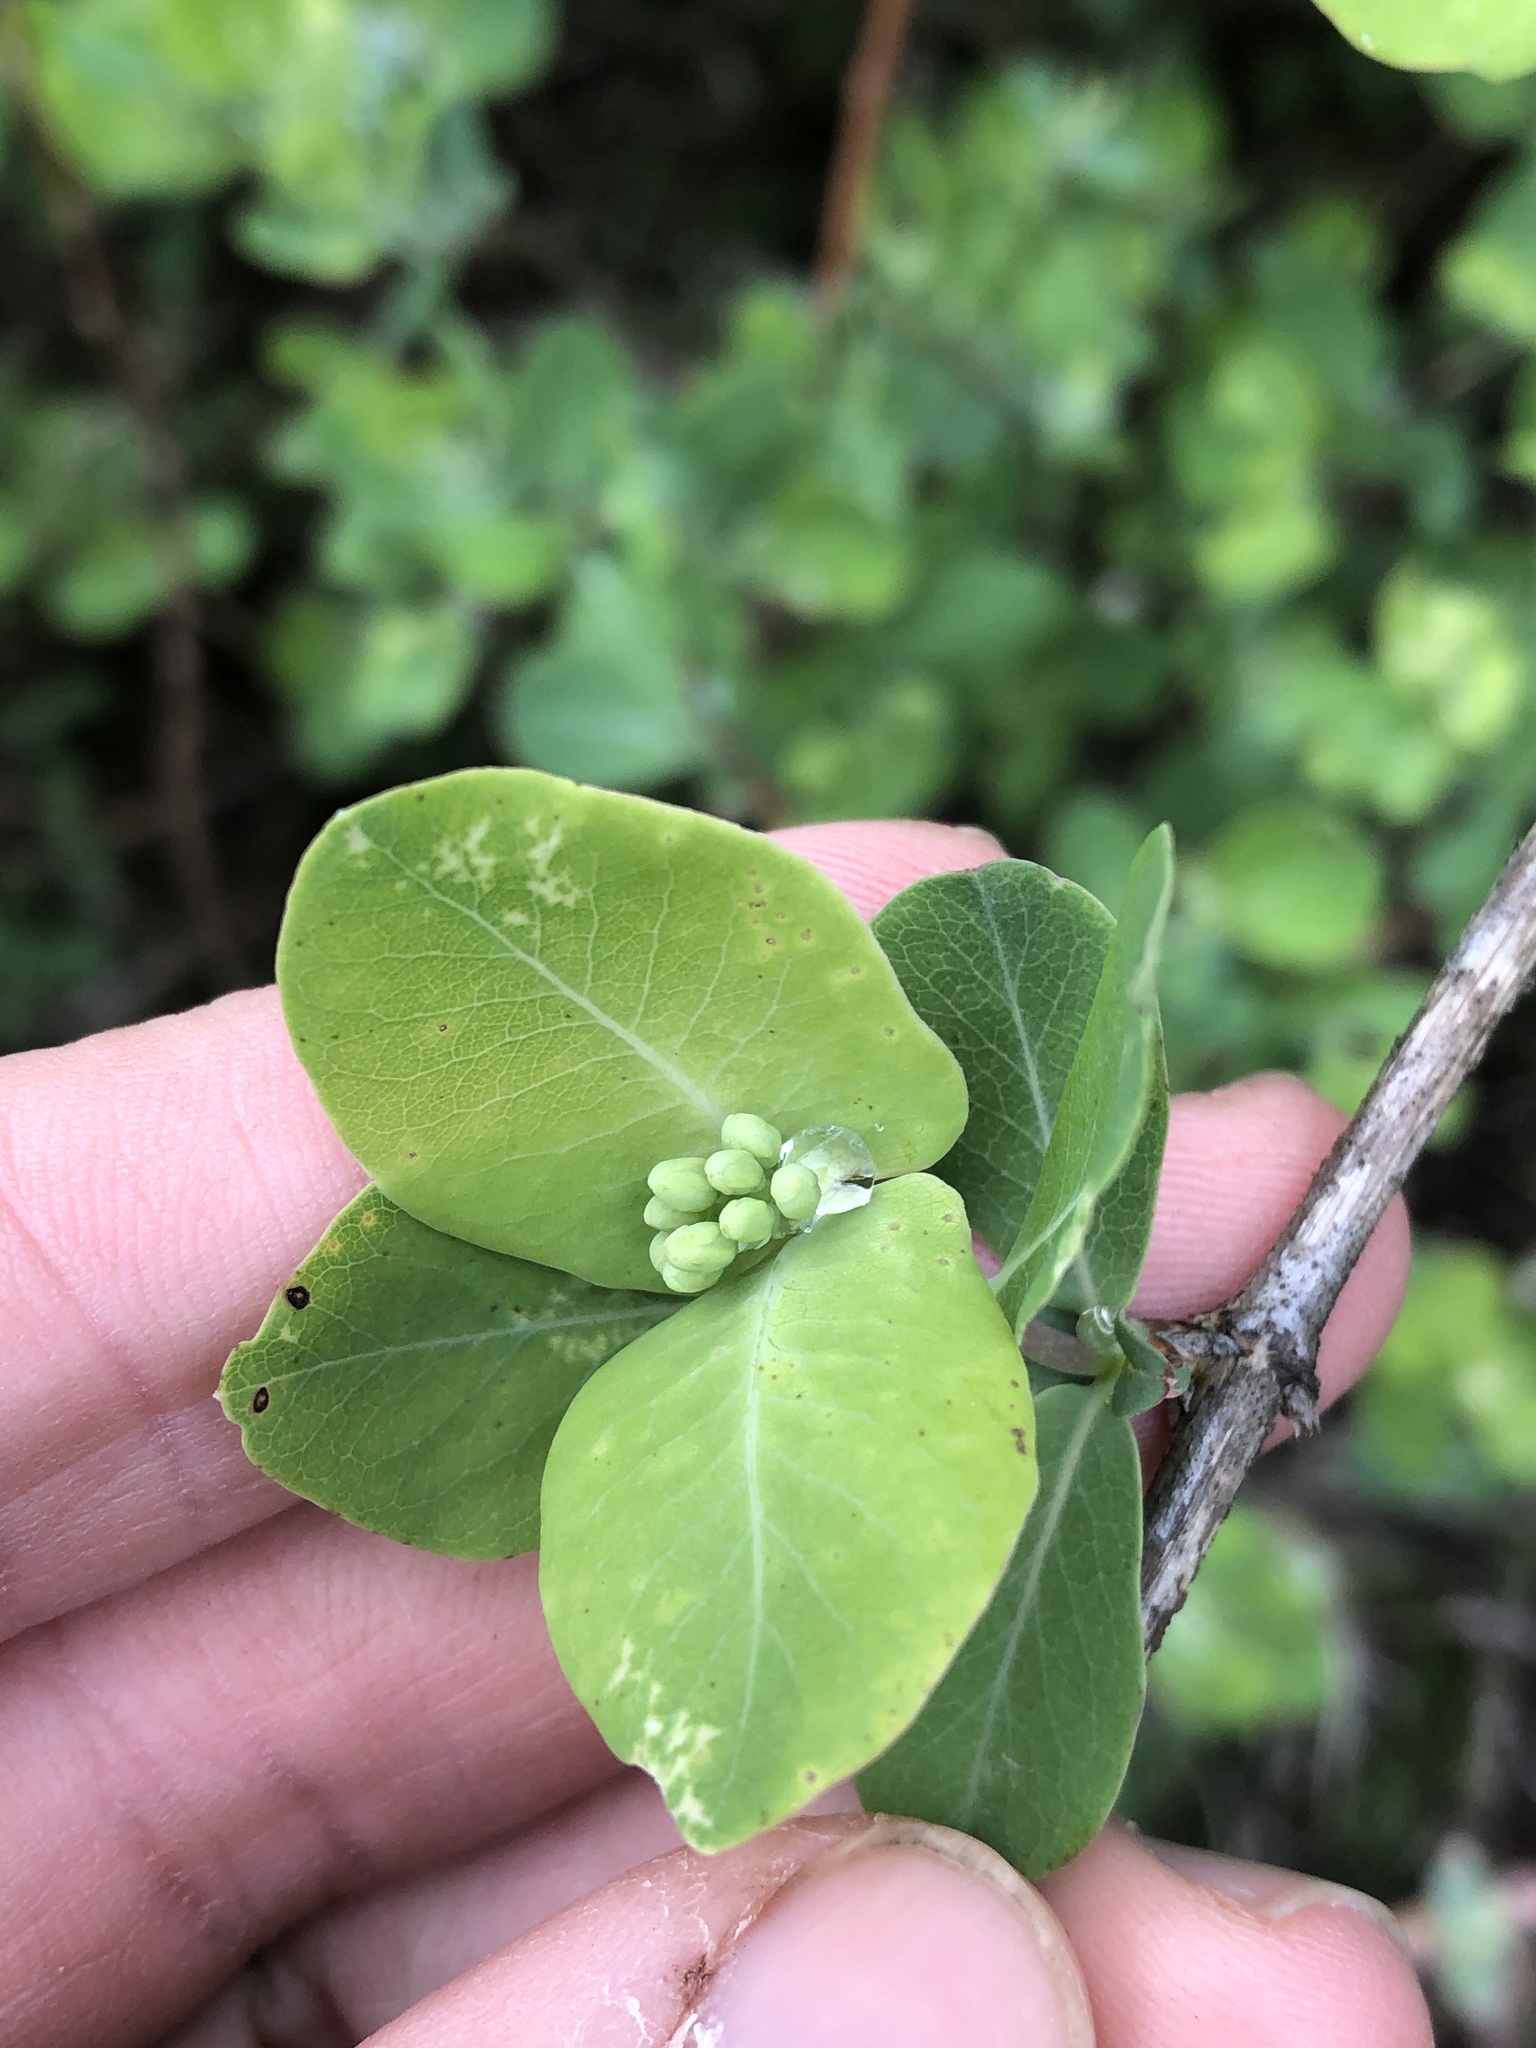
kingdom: Plantae
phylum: Tracheophyta
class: Magnoliopsida
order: Dipsacales
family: Caprifoliaceae
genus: Lonicera
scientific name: Lonicera albiflora
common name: White honeysuckle
